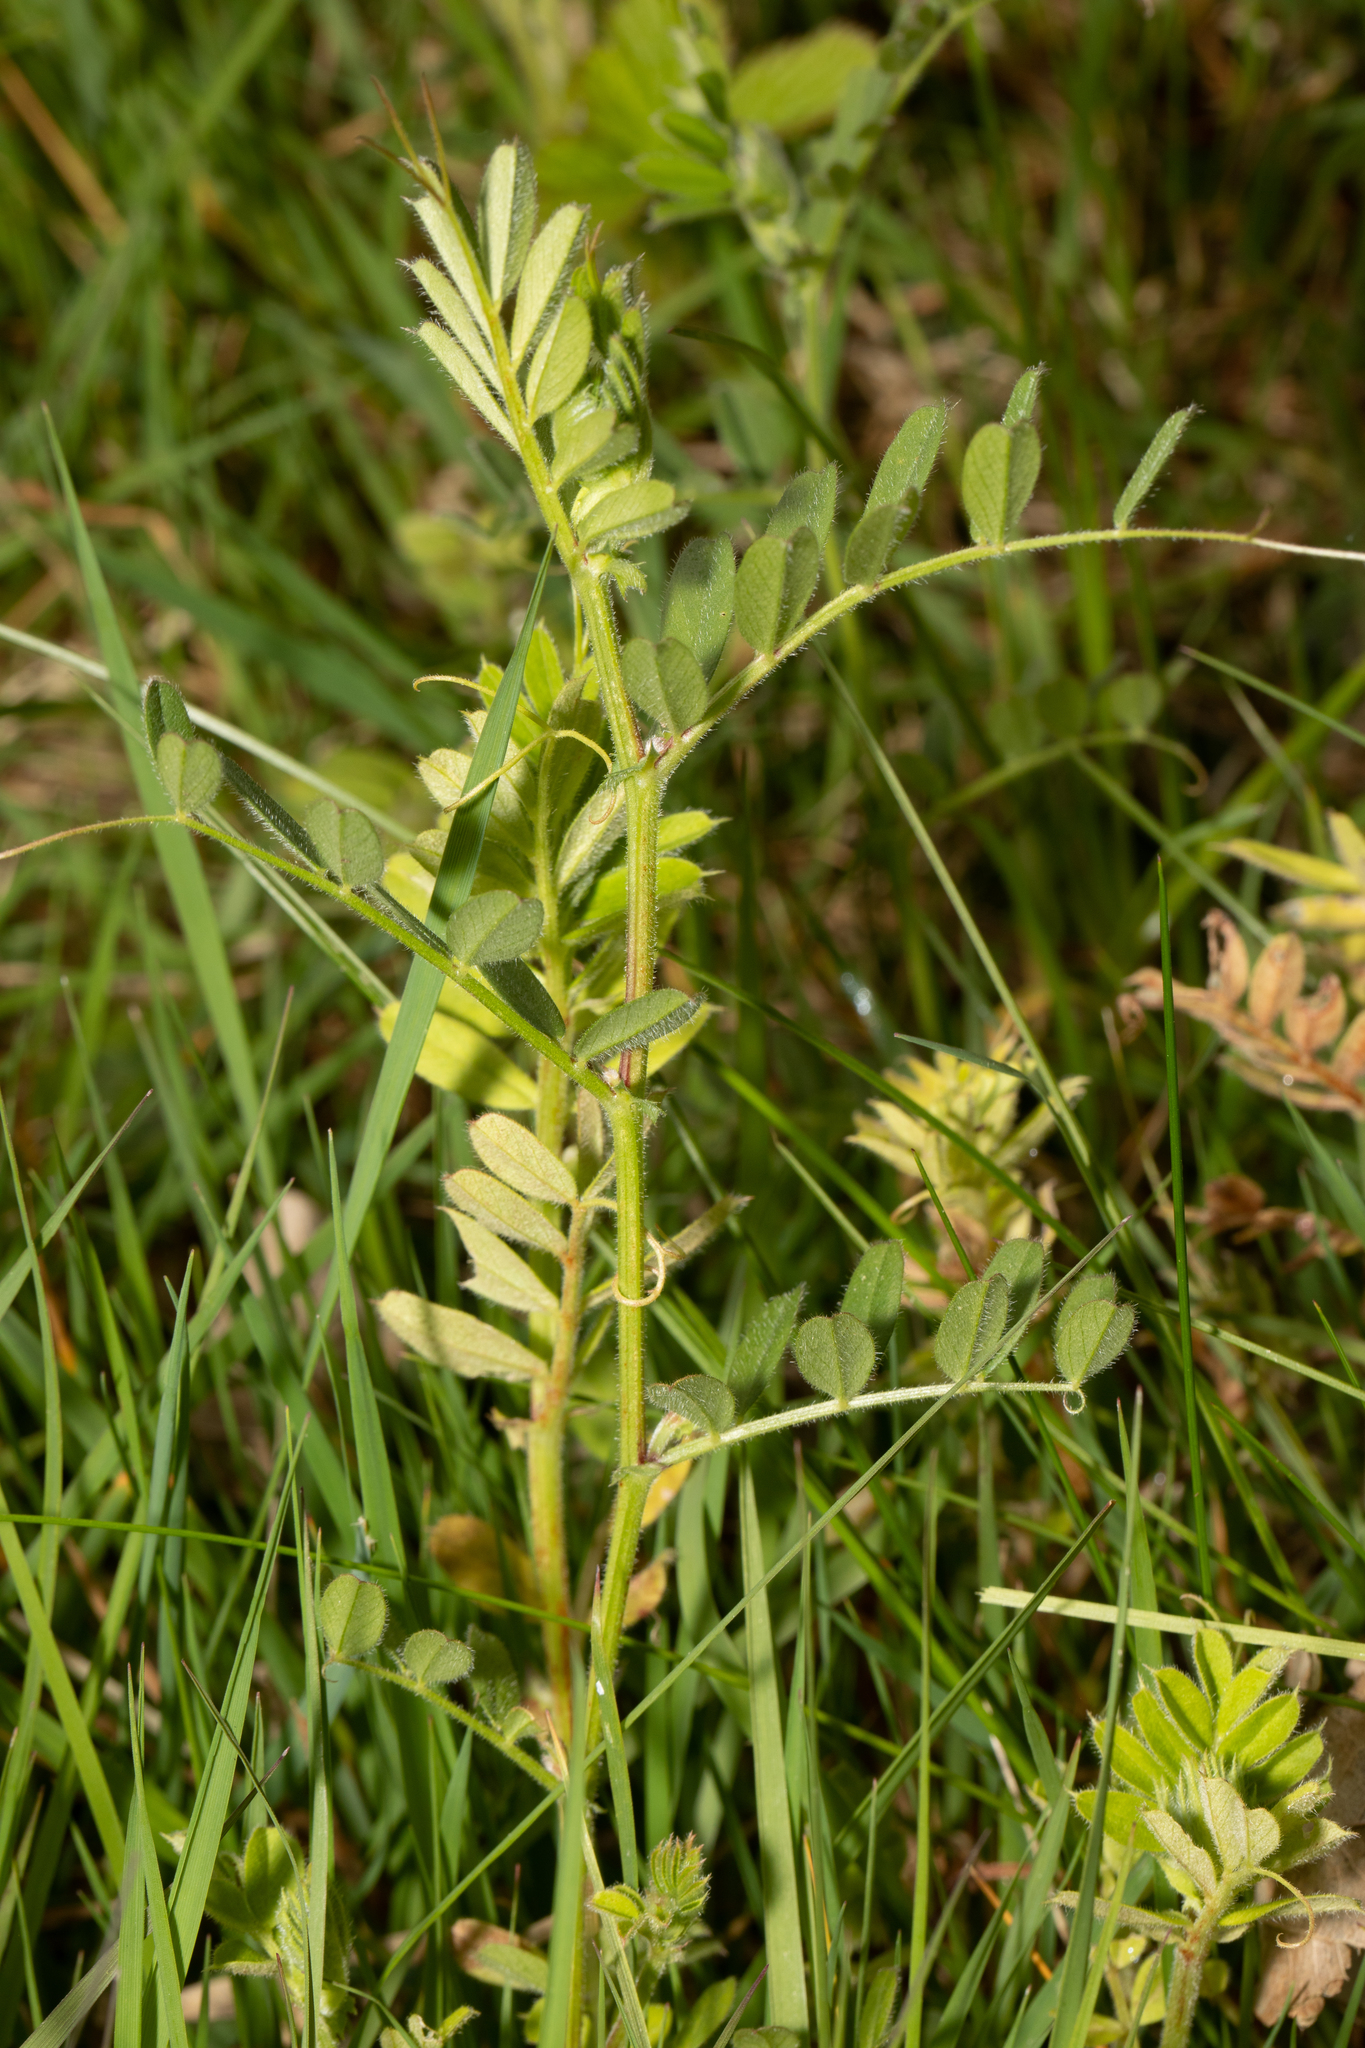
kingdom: Plantae
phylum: Tracheophyta
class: Magnoliopsida
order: Fabales
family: Fabaceae
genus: Vicia
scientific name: Vicia sativa
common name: Garden vetch
